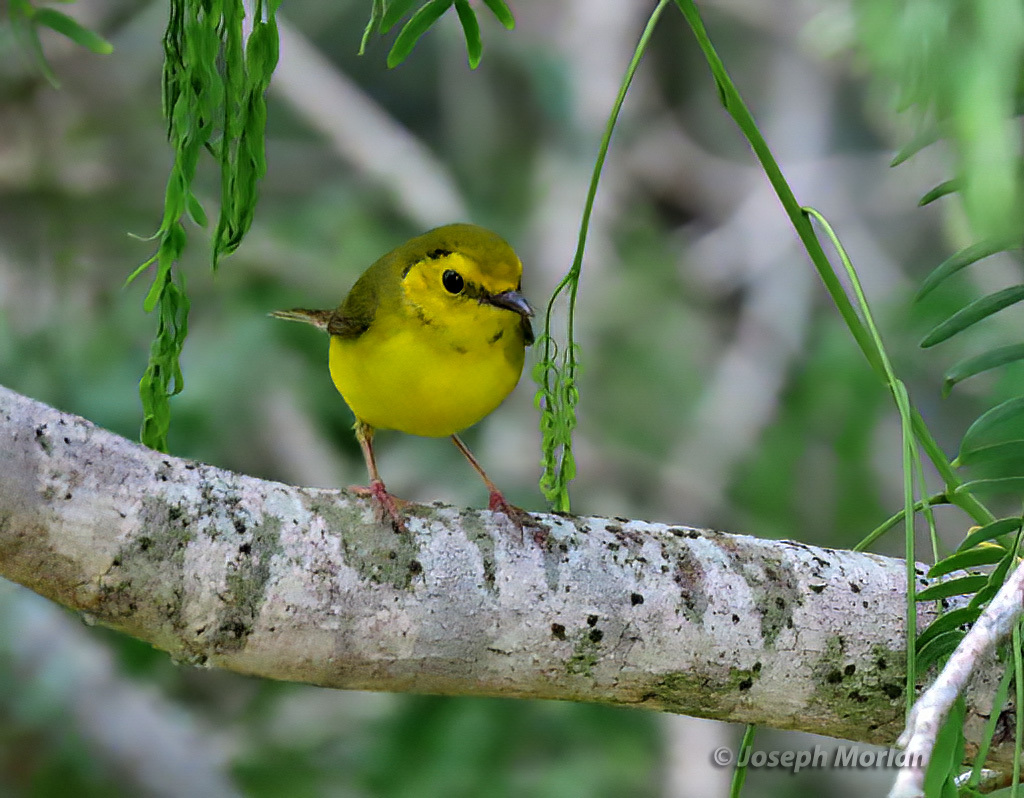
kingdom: Animalia
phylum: Chordata
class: Aves
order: Passeriformes
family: Parulidae
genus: Setophaga
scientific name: Setophaga citrina
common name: Hooded warbler
